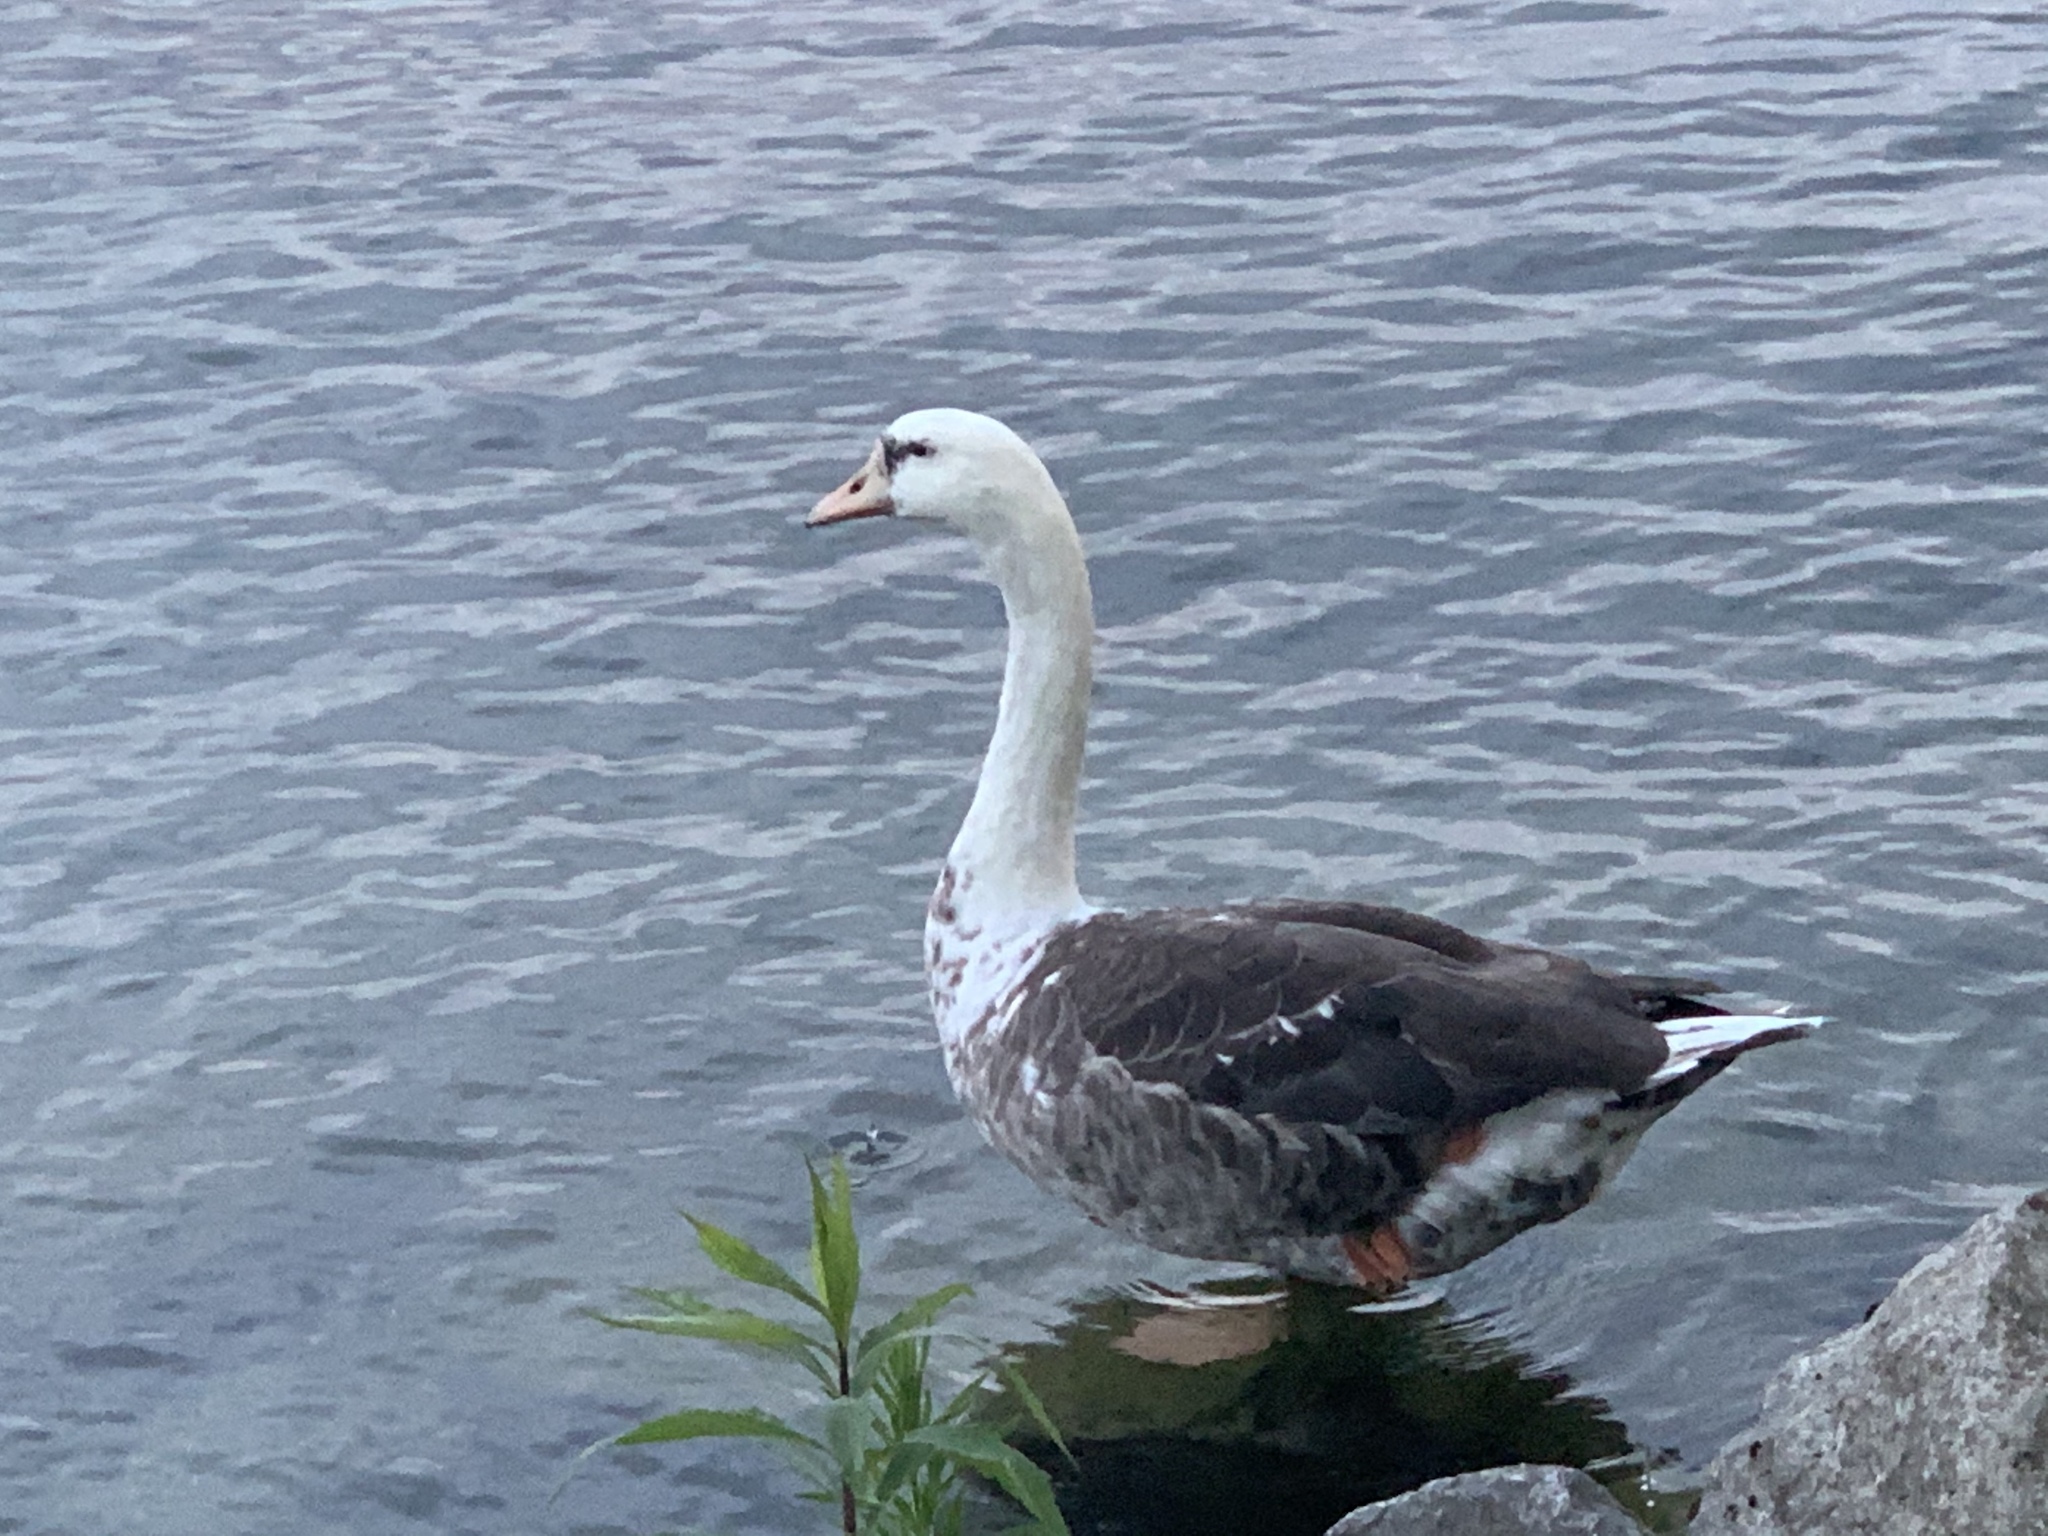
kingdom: Animalia
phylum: Chordata
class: Aves
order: Anseriformes
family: Anatidae
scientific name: Anatidae
